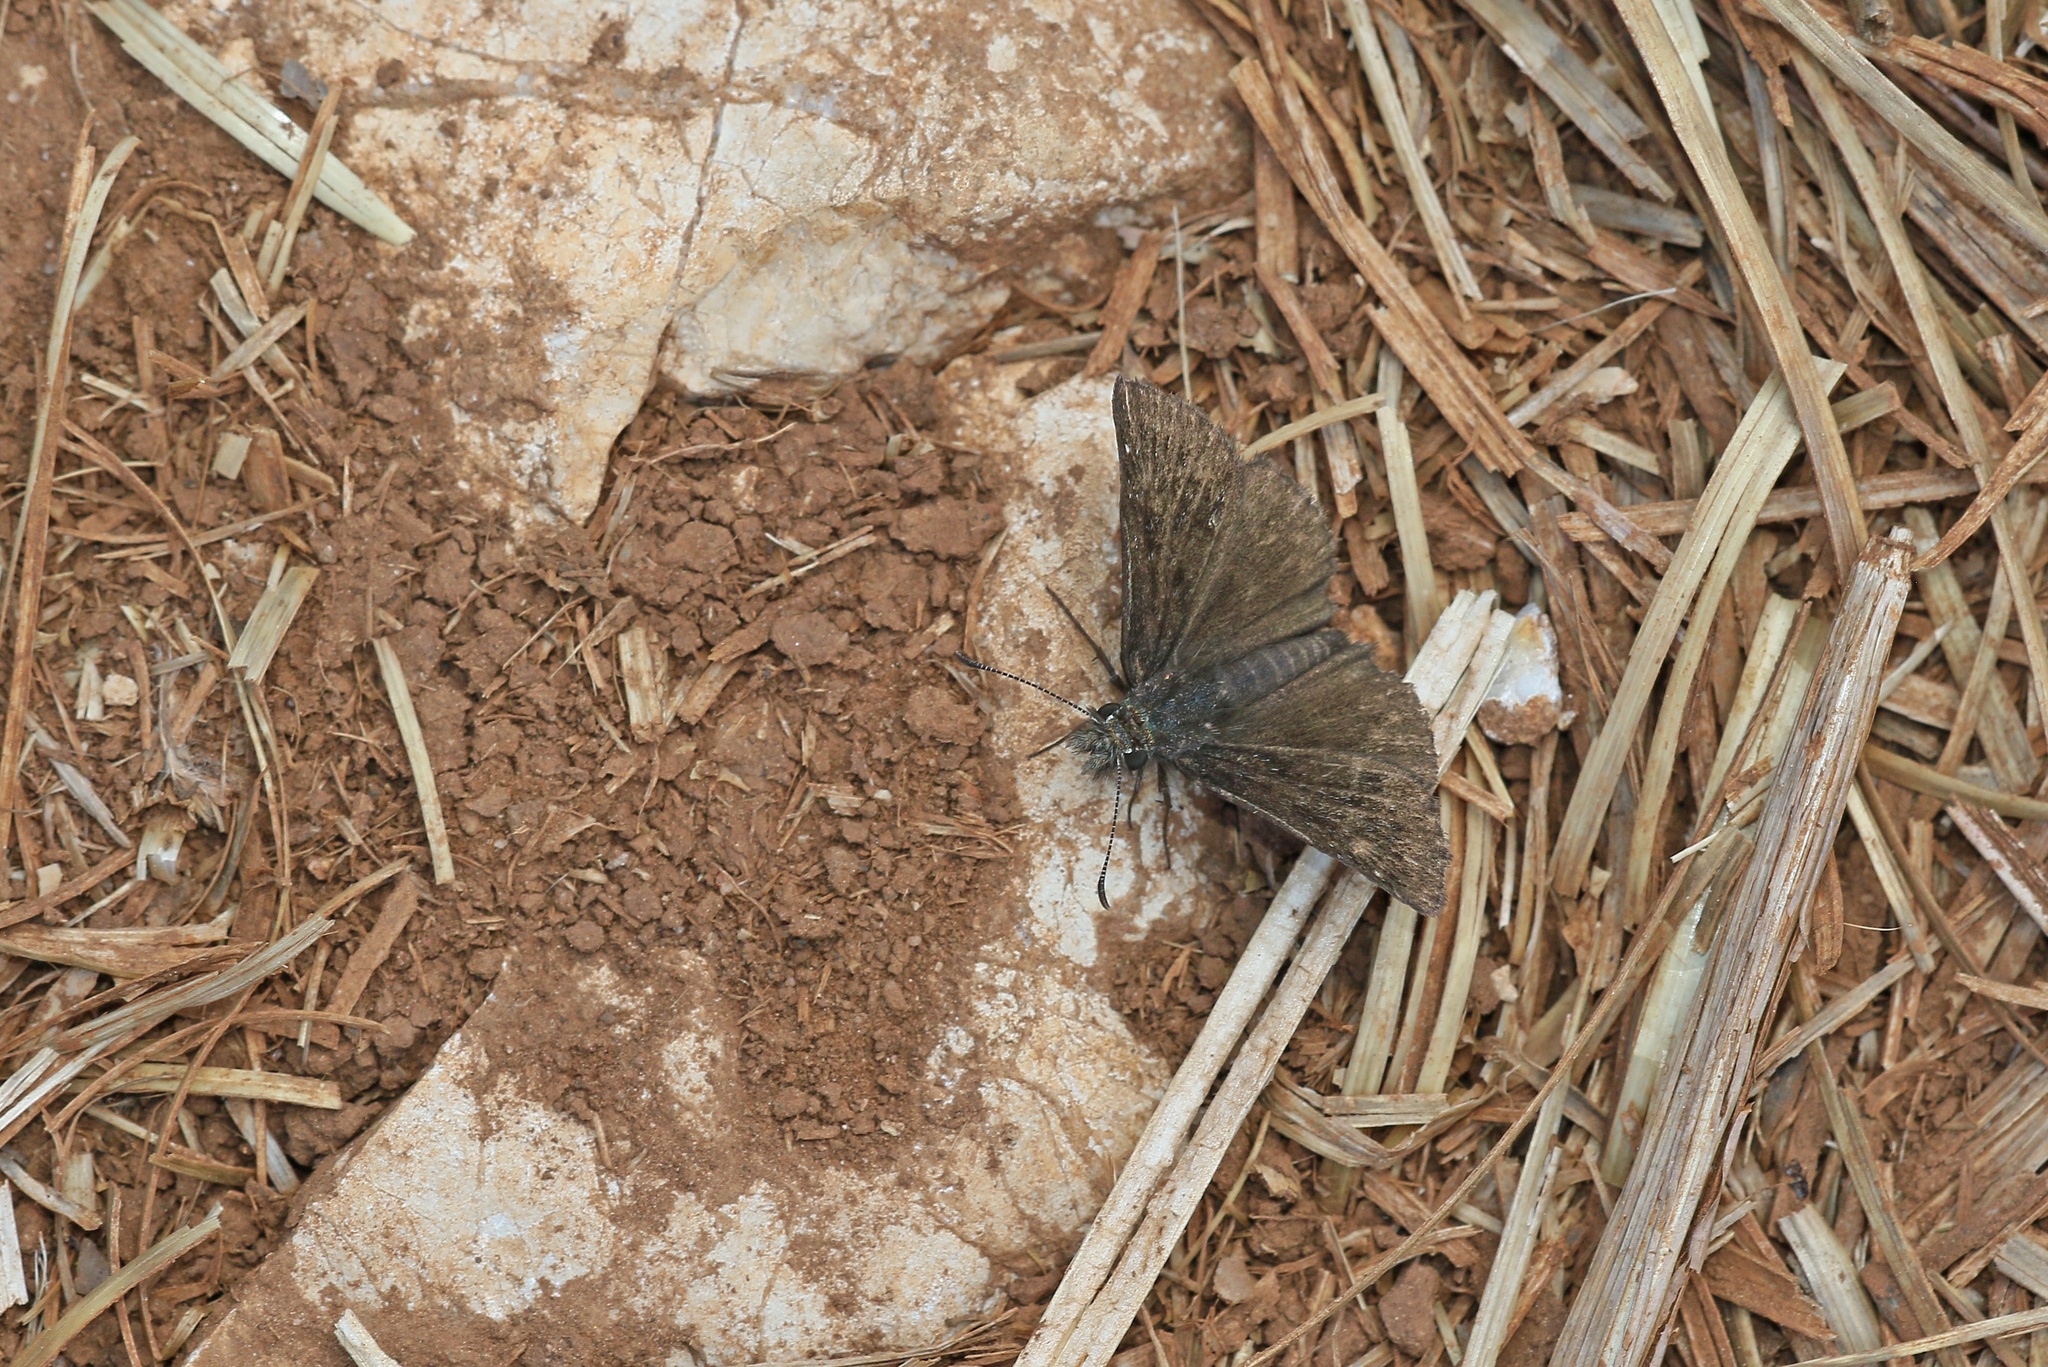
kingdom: Animalia
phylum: Arthropoda
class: Insecta
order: Lepidoptera
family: Hesperiidae
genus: Erynnis
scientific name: Erynnis tages
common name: Dingy skipper
